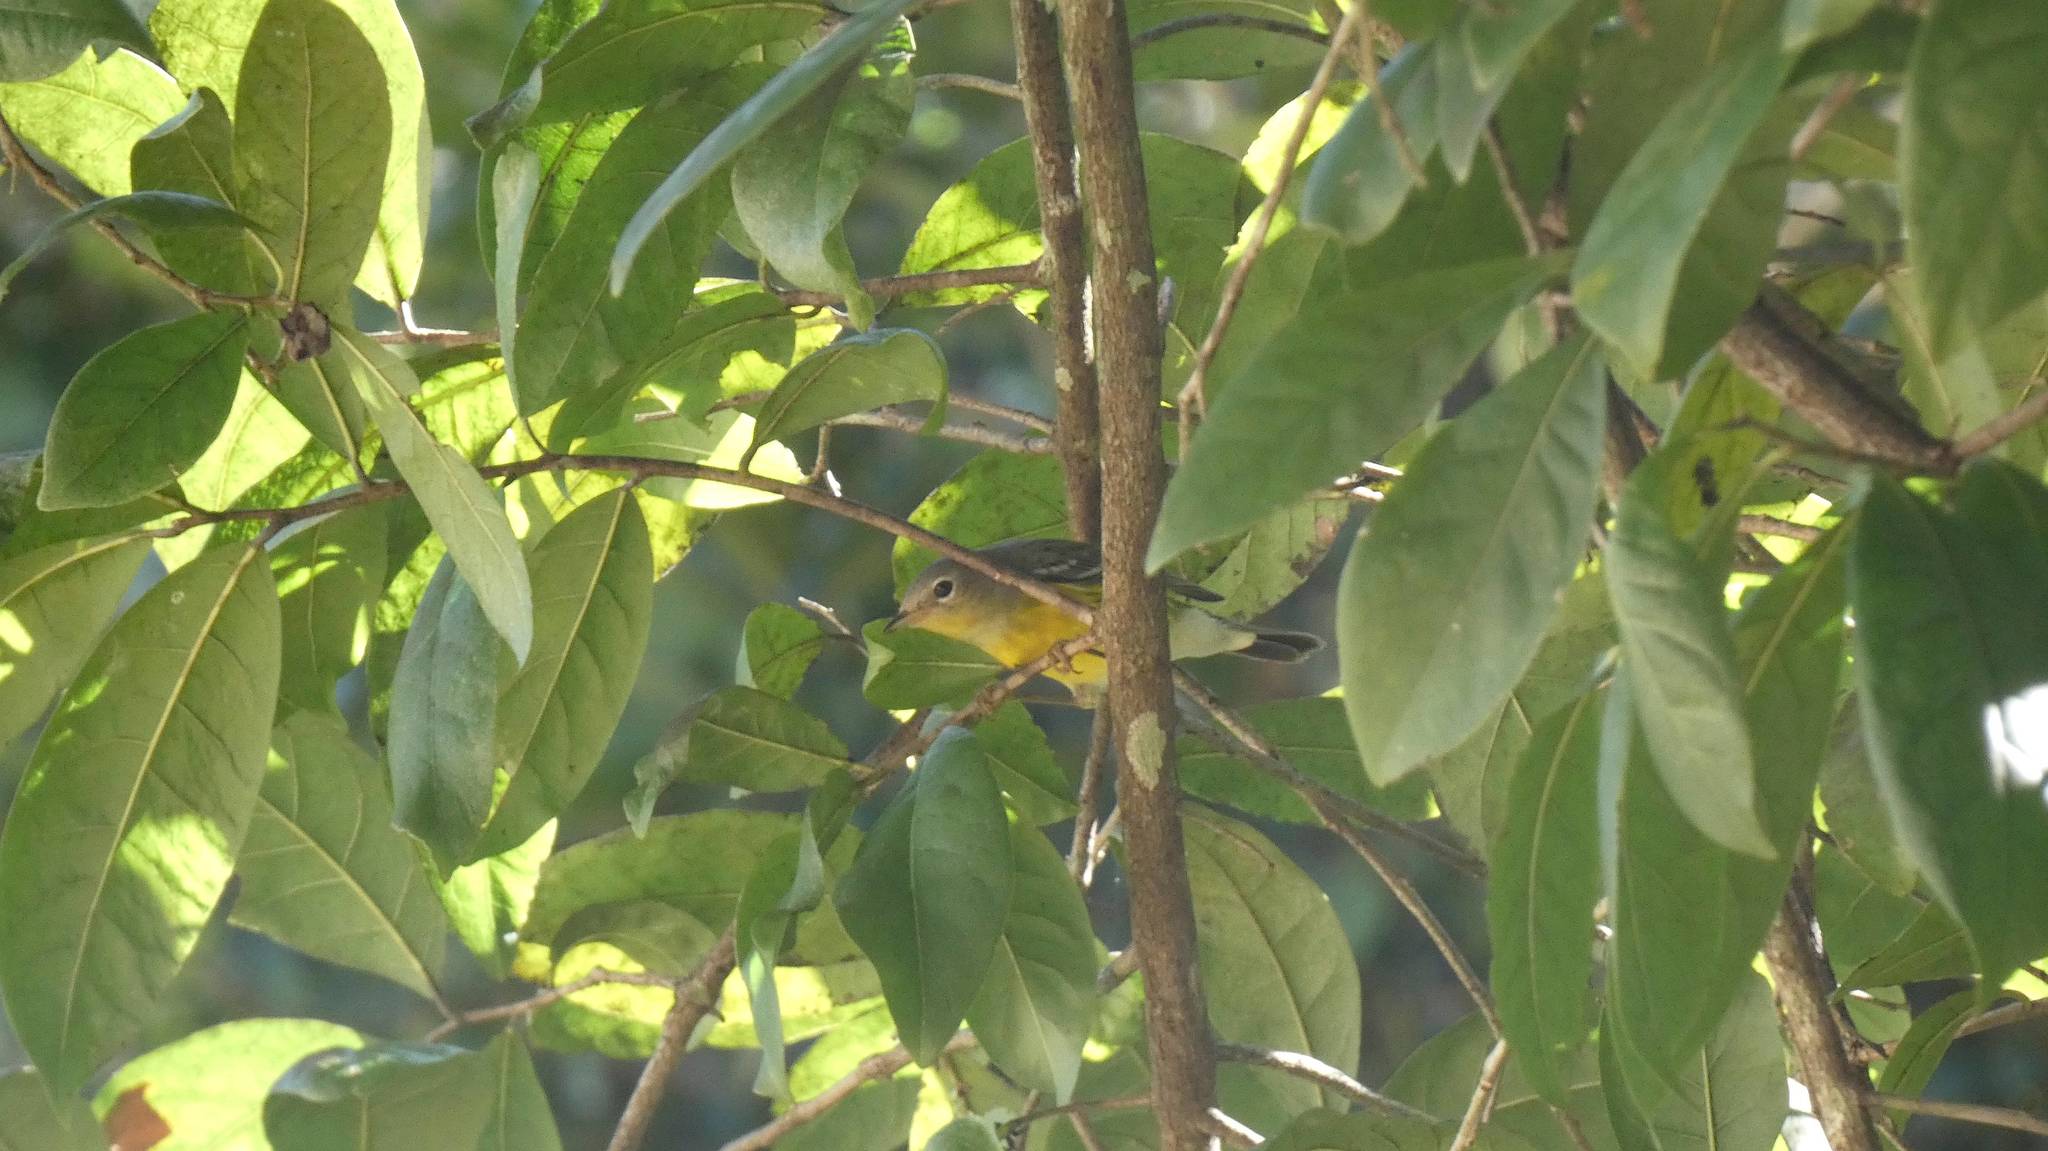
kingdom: Animalia
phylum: Chordata
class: Aves
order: Passeriformes
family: Parulidae
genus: Setophaga
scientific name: Setophaga magnolia
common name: Magnolia warbler
